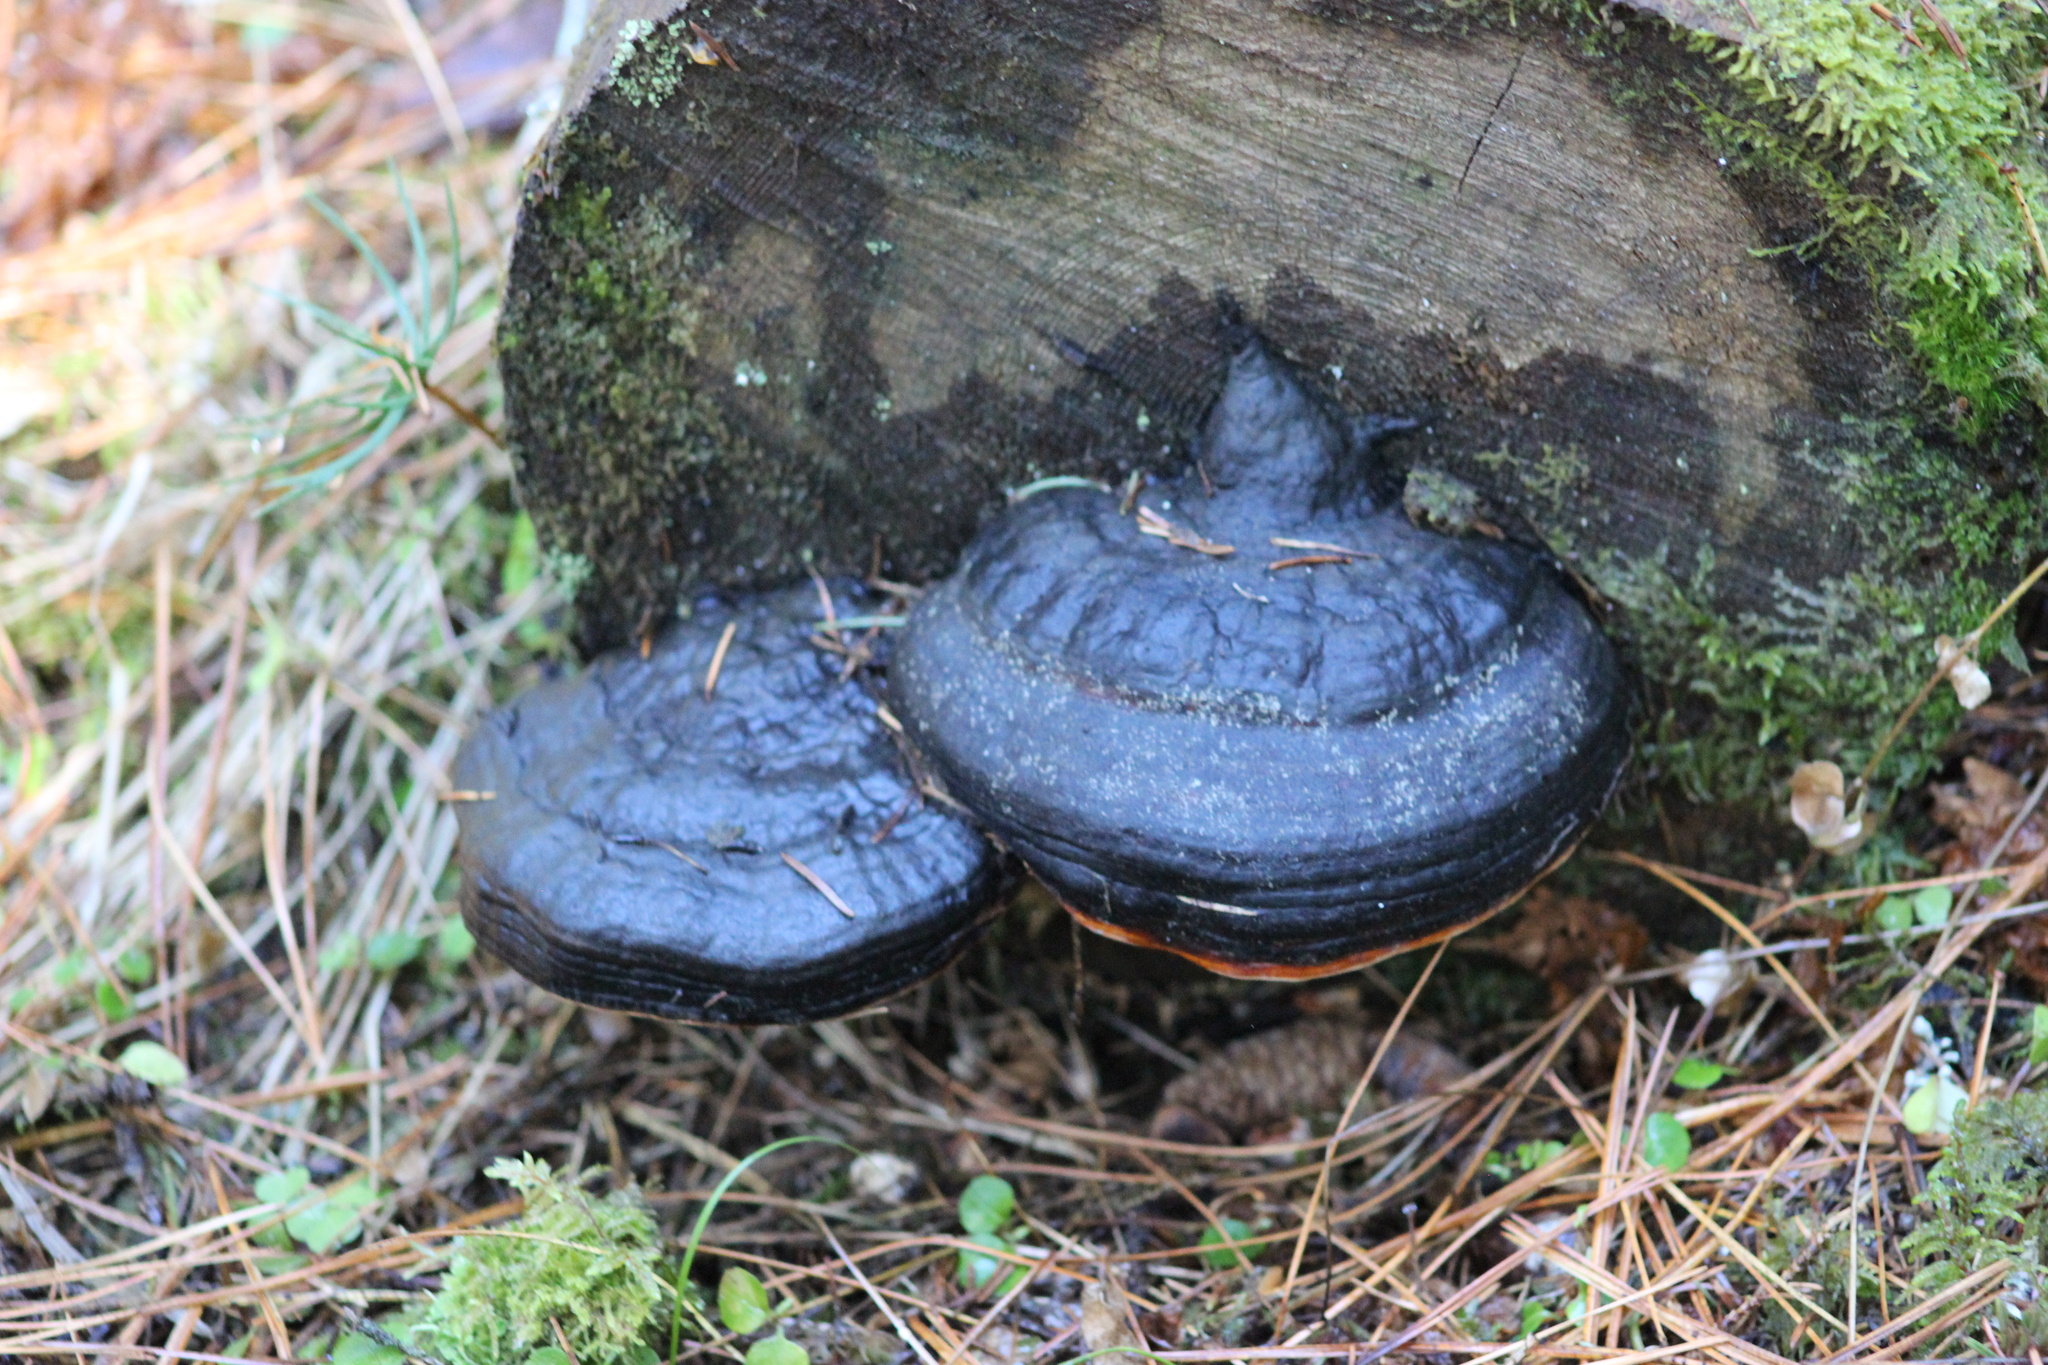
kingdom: Fungi
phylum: Basidiomycota
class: Agaricomycetes
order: Polyporales
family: Fomitopsidaceae
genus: Fomitopsis
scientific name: Fomitopsis pinicola
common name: Red-belted bracket
